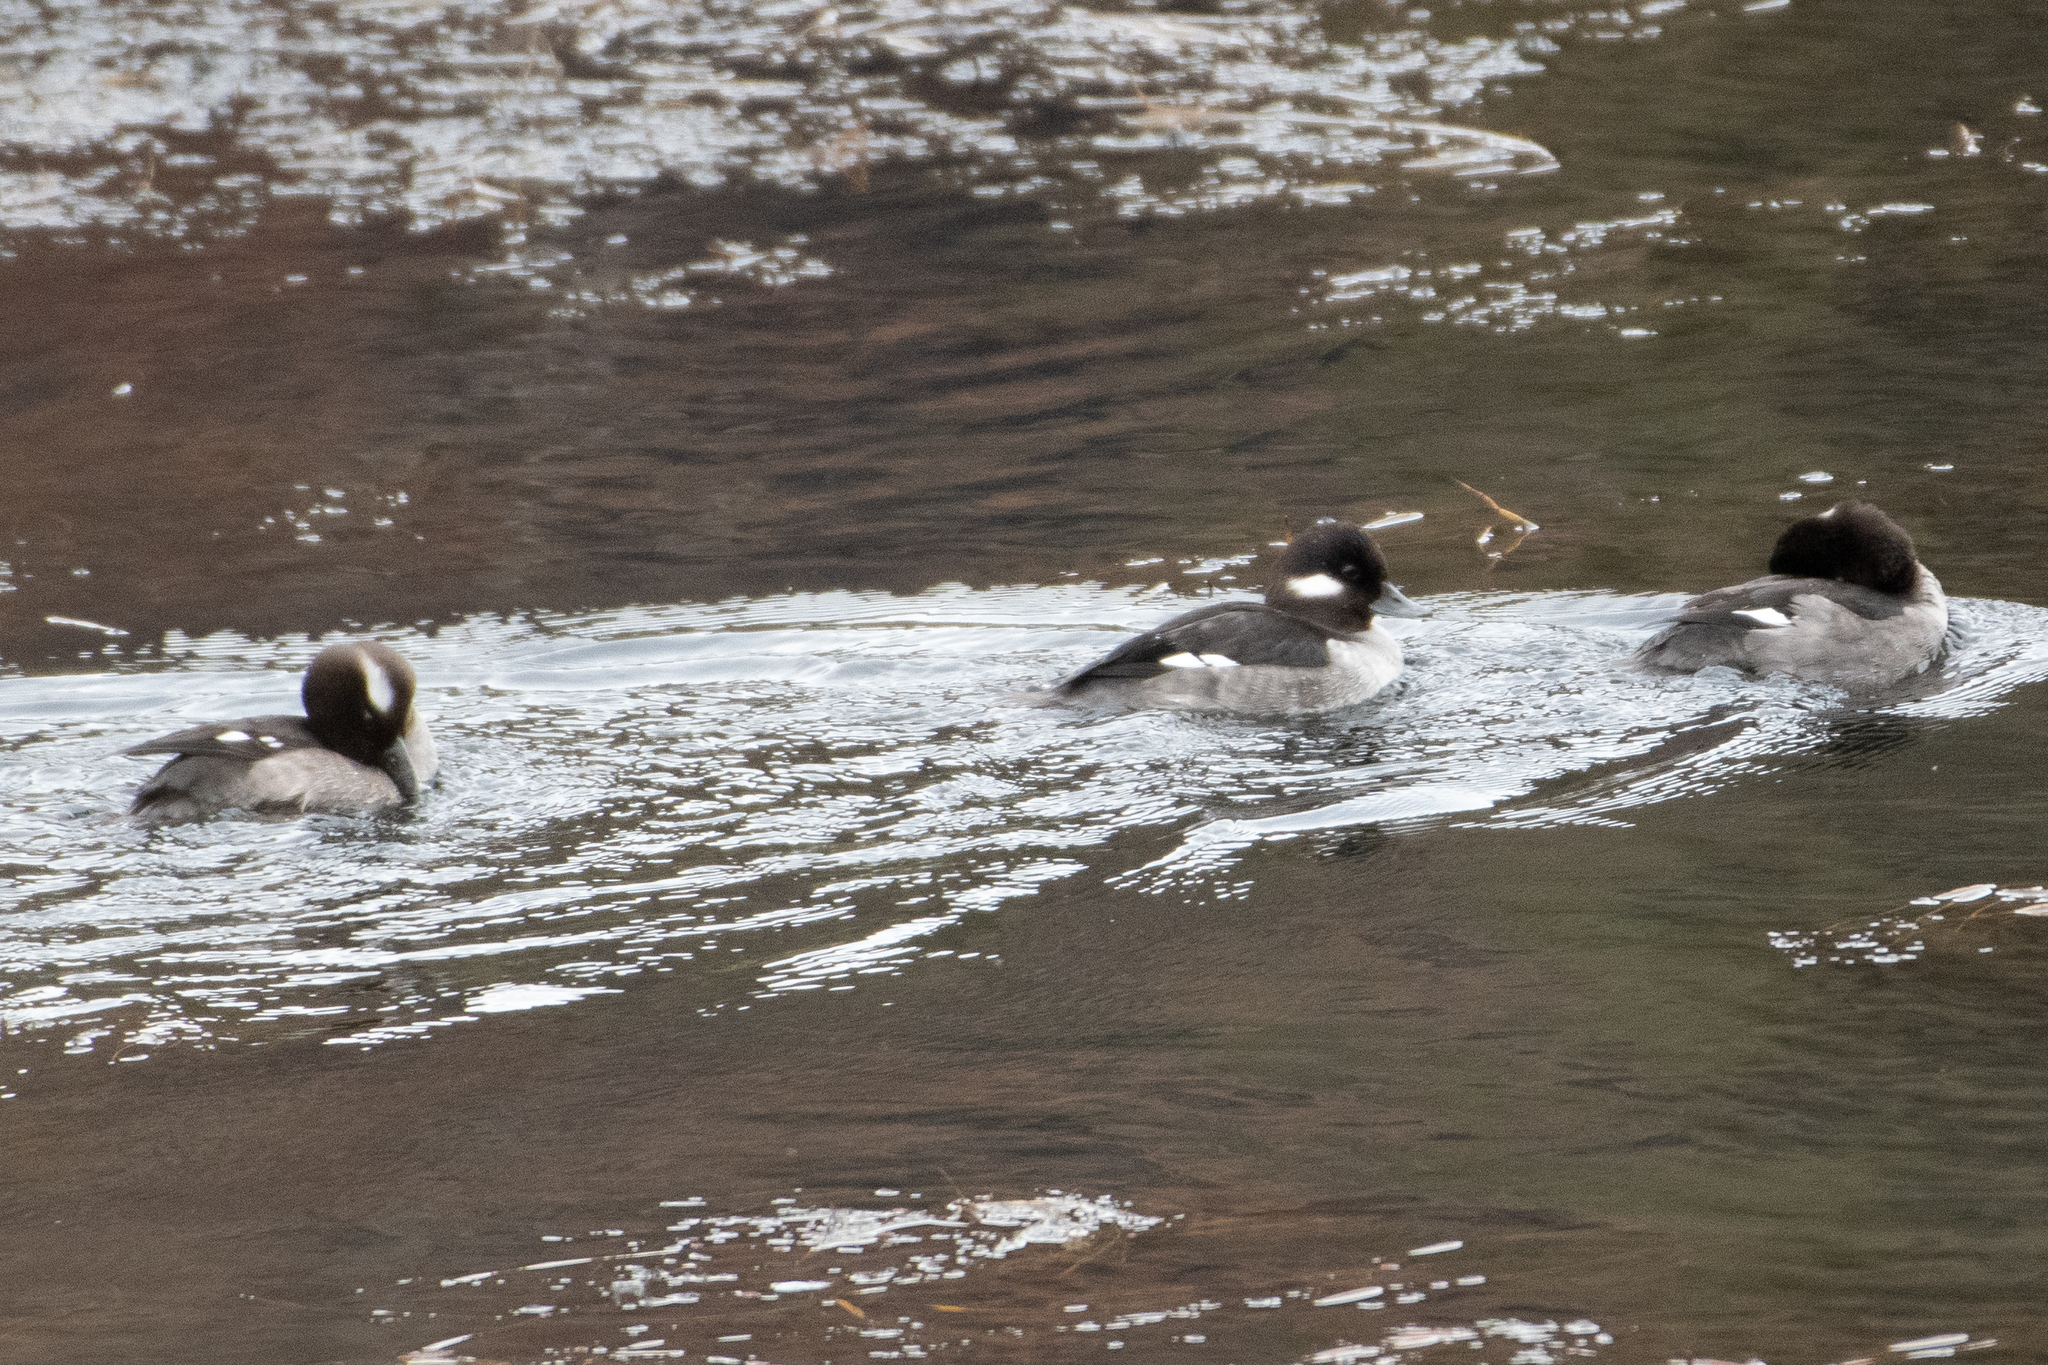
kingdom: Animalia
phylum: Chordata
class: Aves
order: Anseriformes
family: Anatidae
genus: Bucephala
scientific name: Bucephala albeola
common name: Bufflehead
